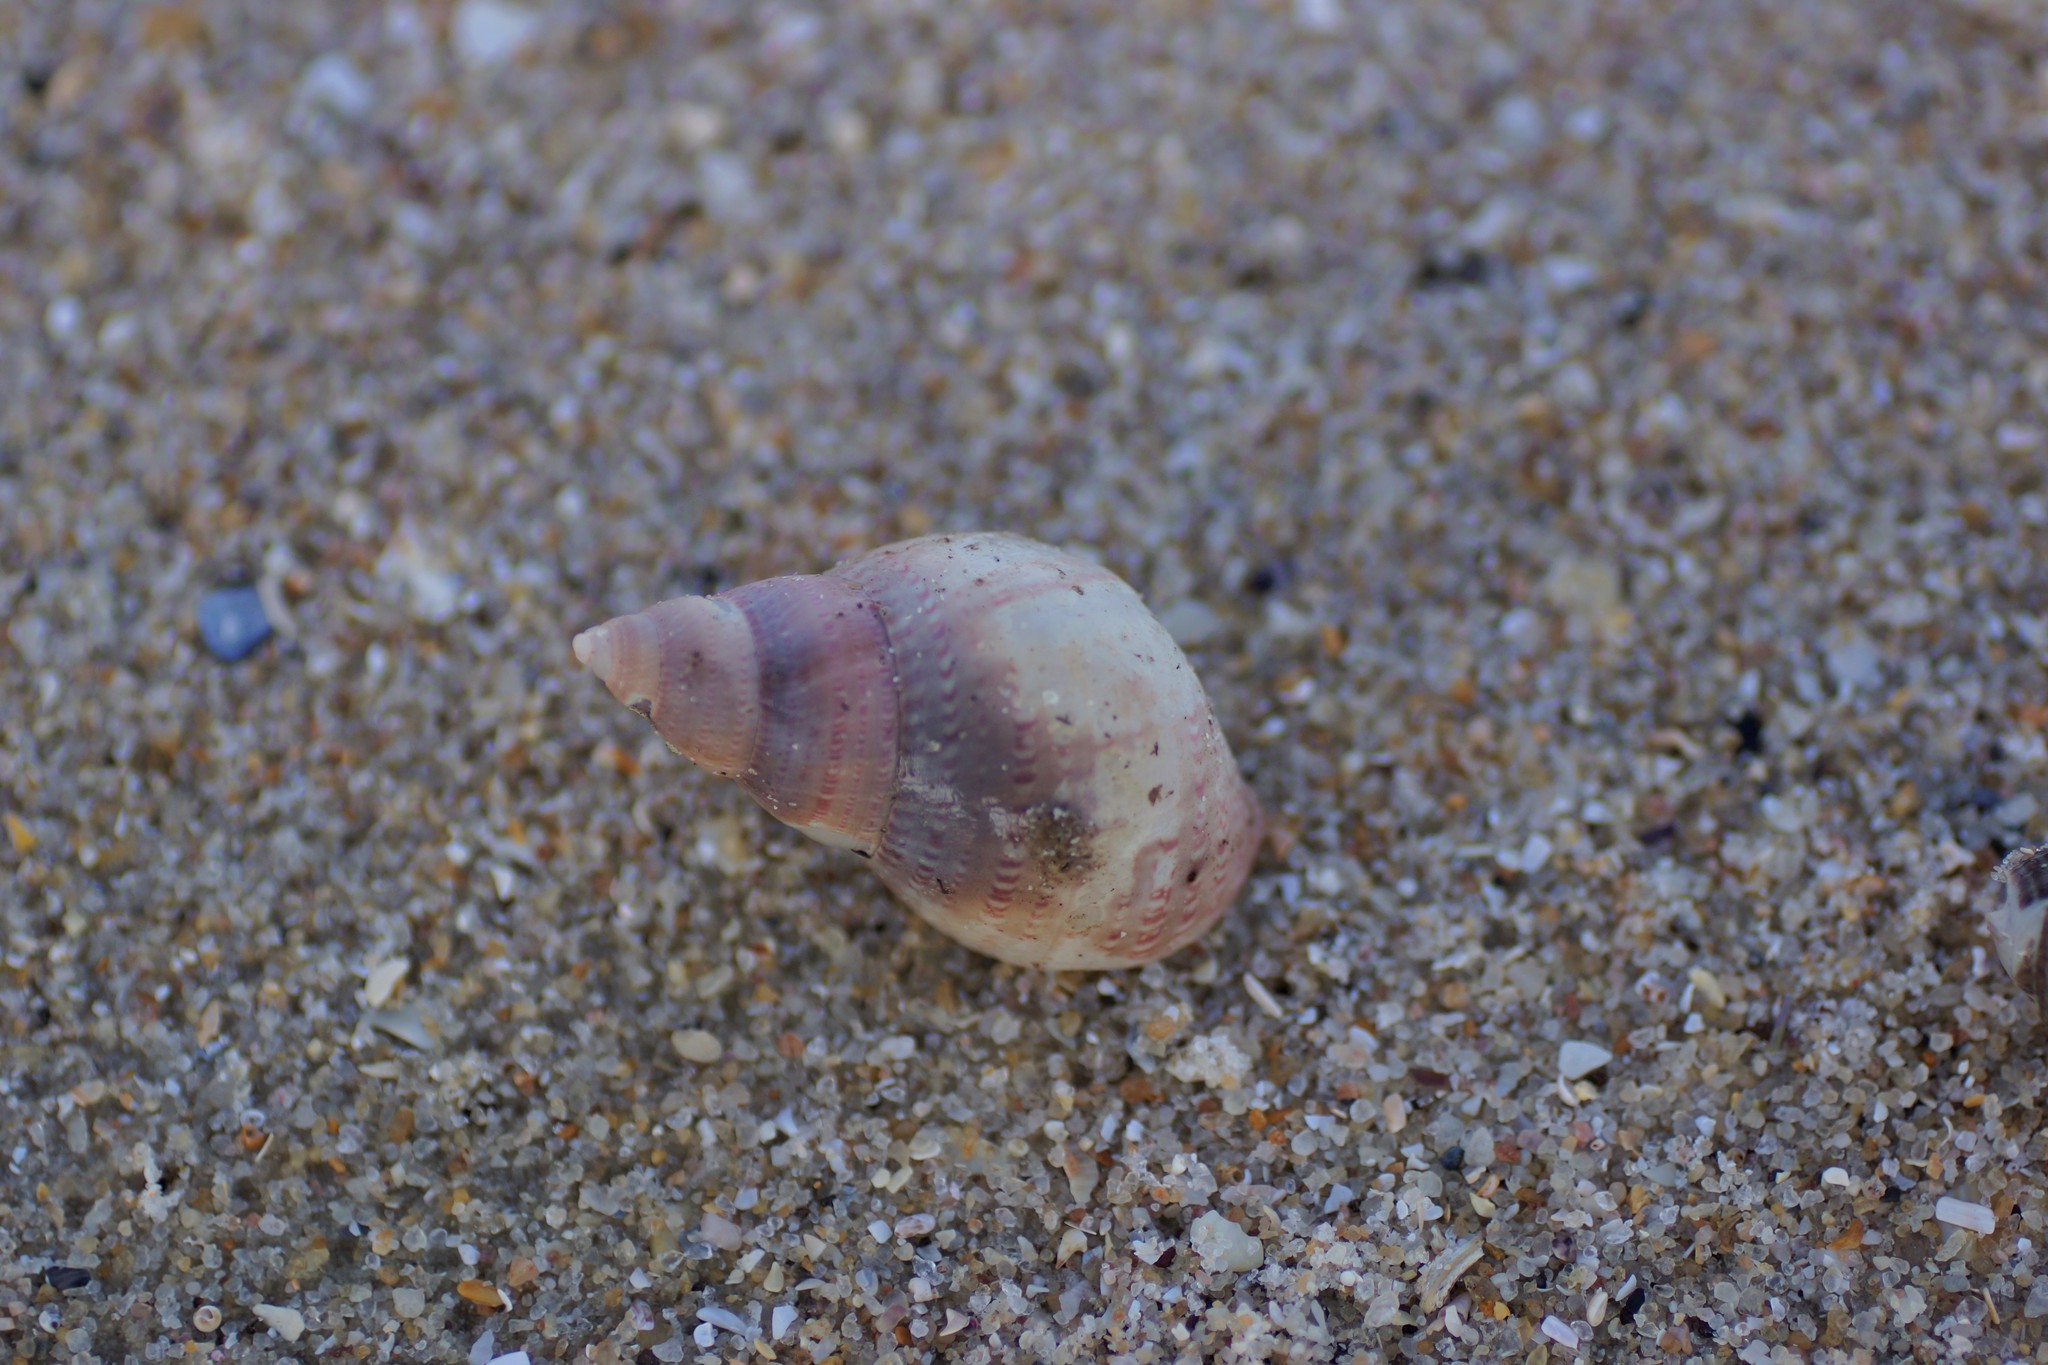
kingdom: Animalia
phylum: Mollusca
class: Gastropoda
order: Trochida
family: Phasianellidae
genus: Phasianella
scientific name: Phasianella australis
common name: Painted lady
